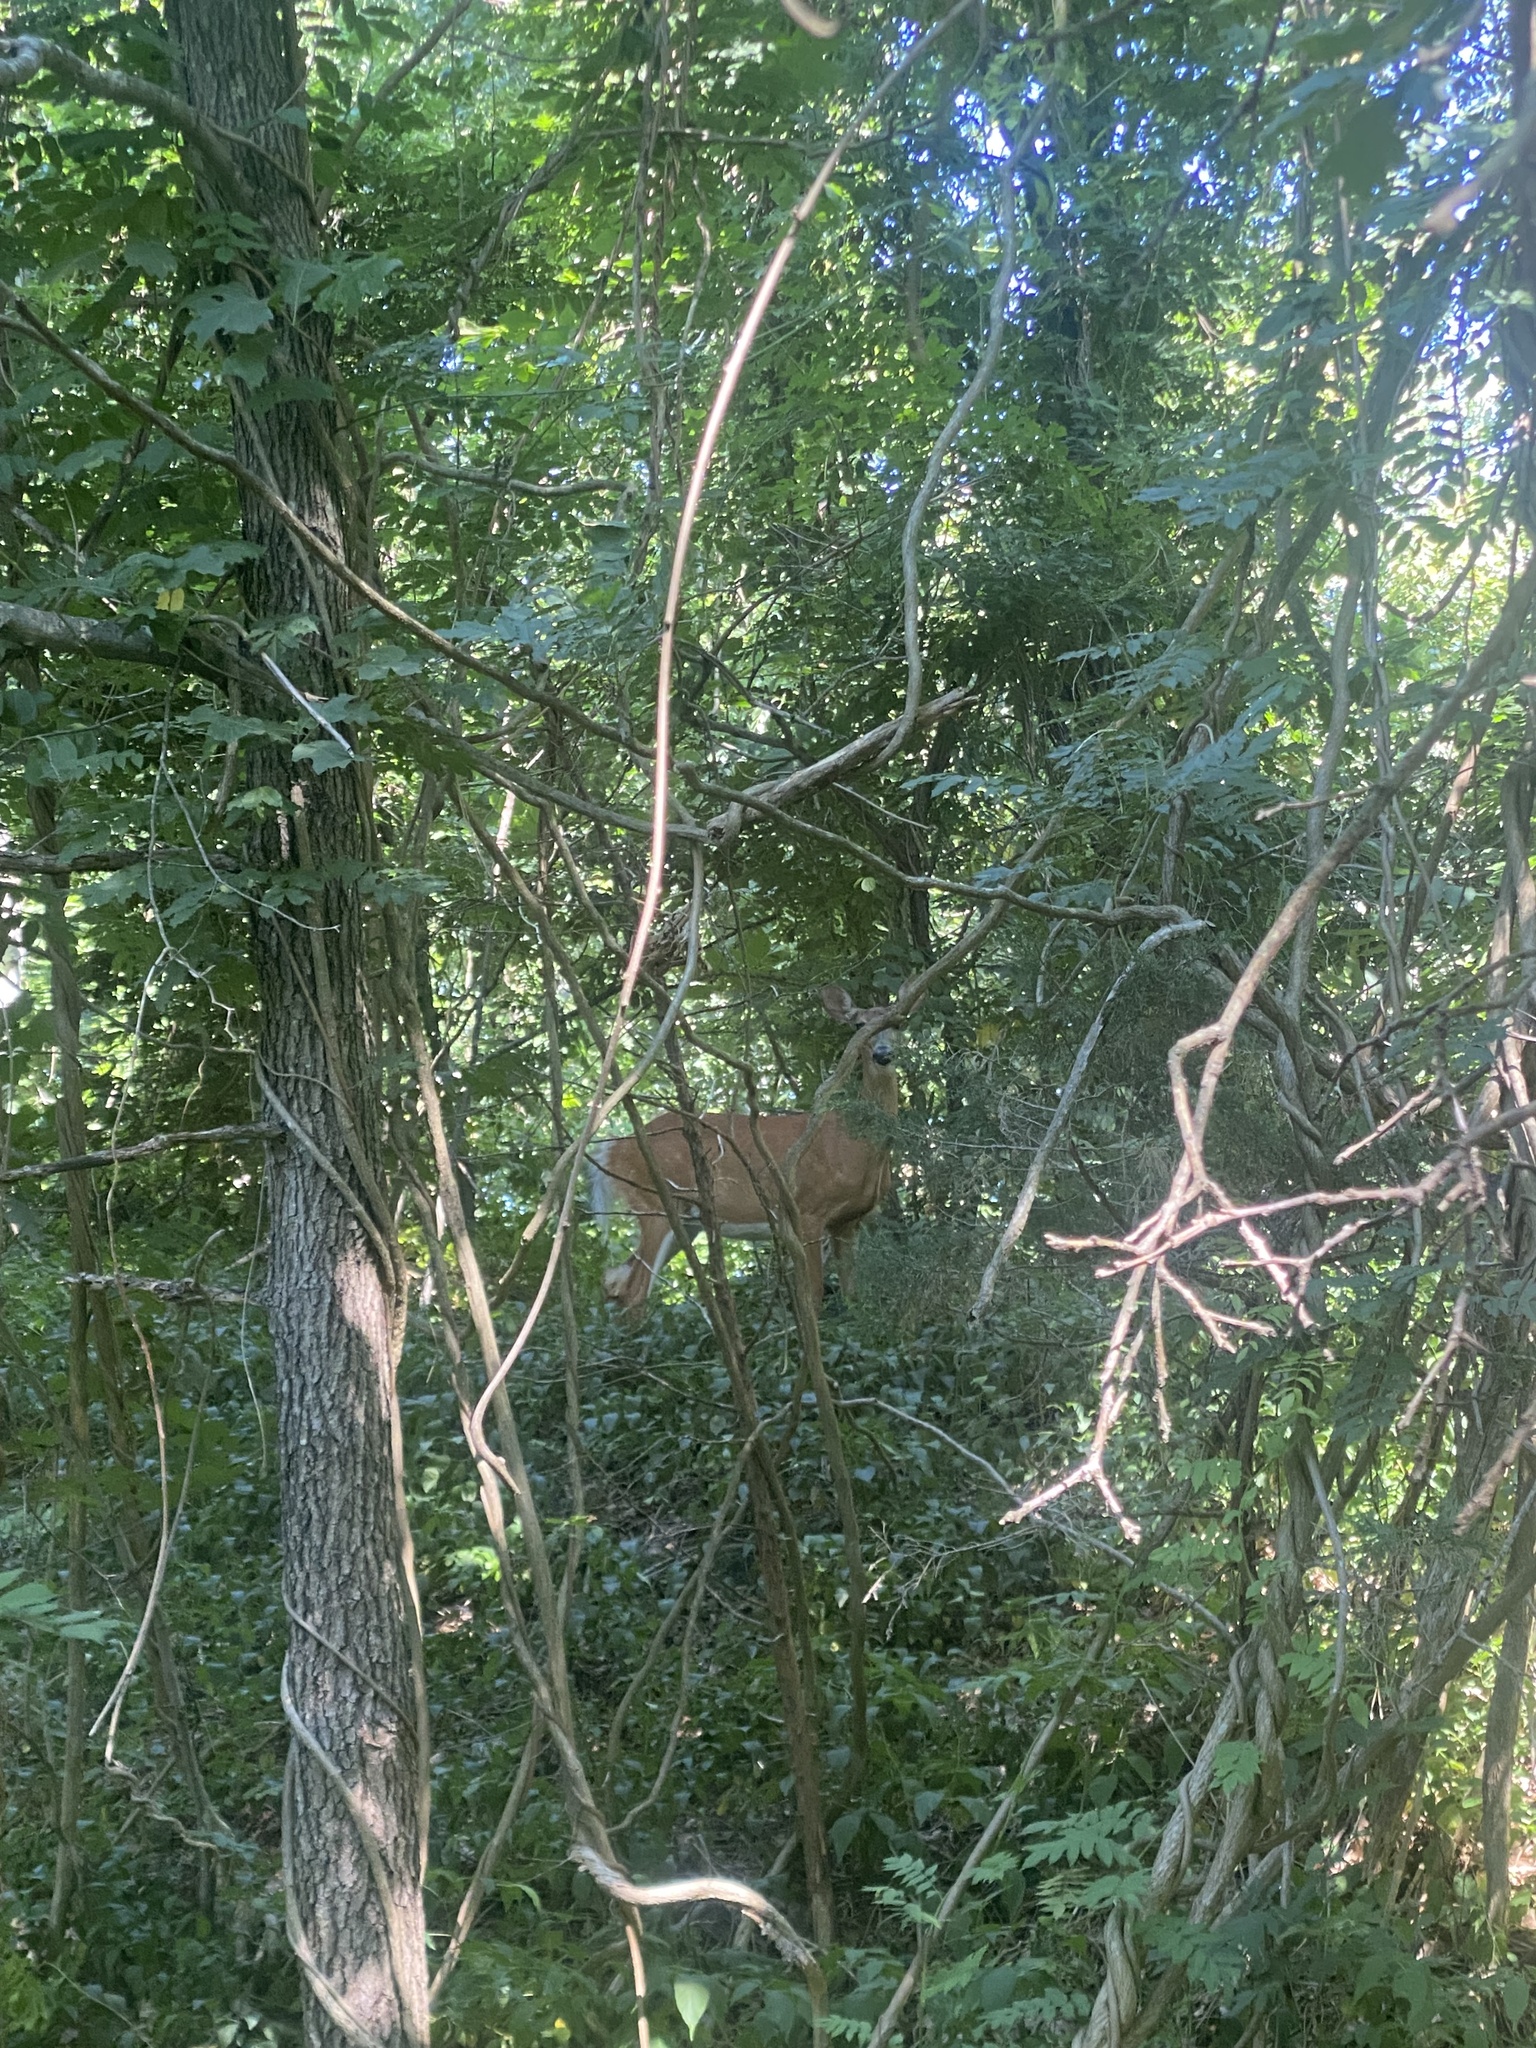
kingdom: Animalia
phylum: Chordata
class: Mammalia
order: Artiodactyla
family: Cervidae
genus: Odocoileus
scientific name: Odocoileus virginianus
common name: White-tailed deer
